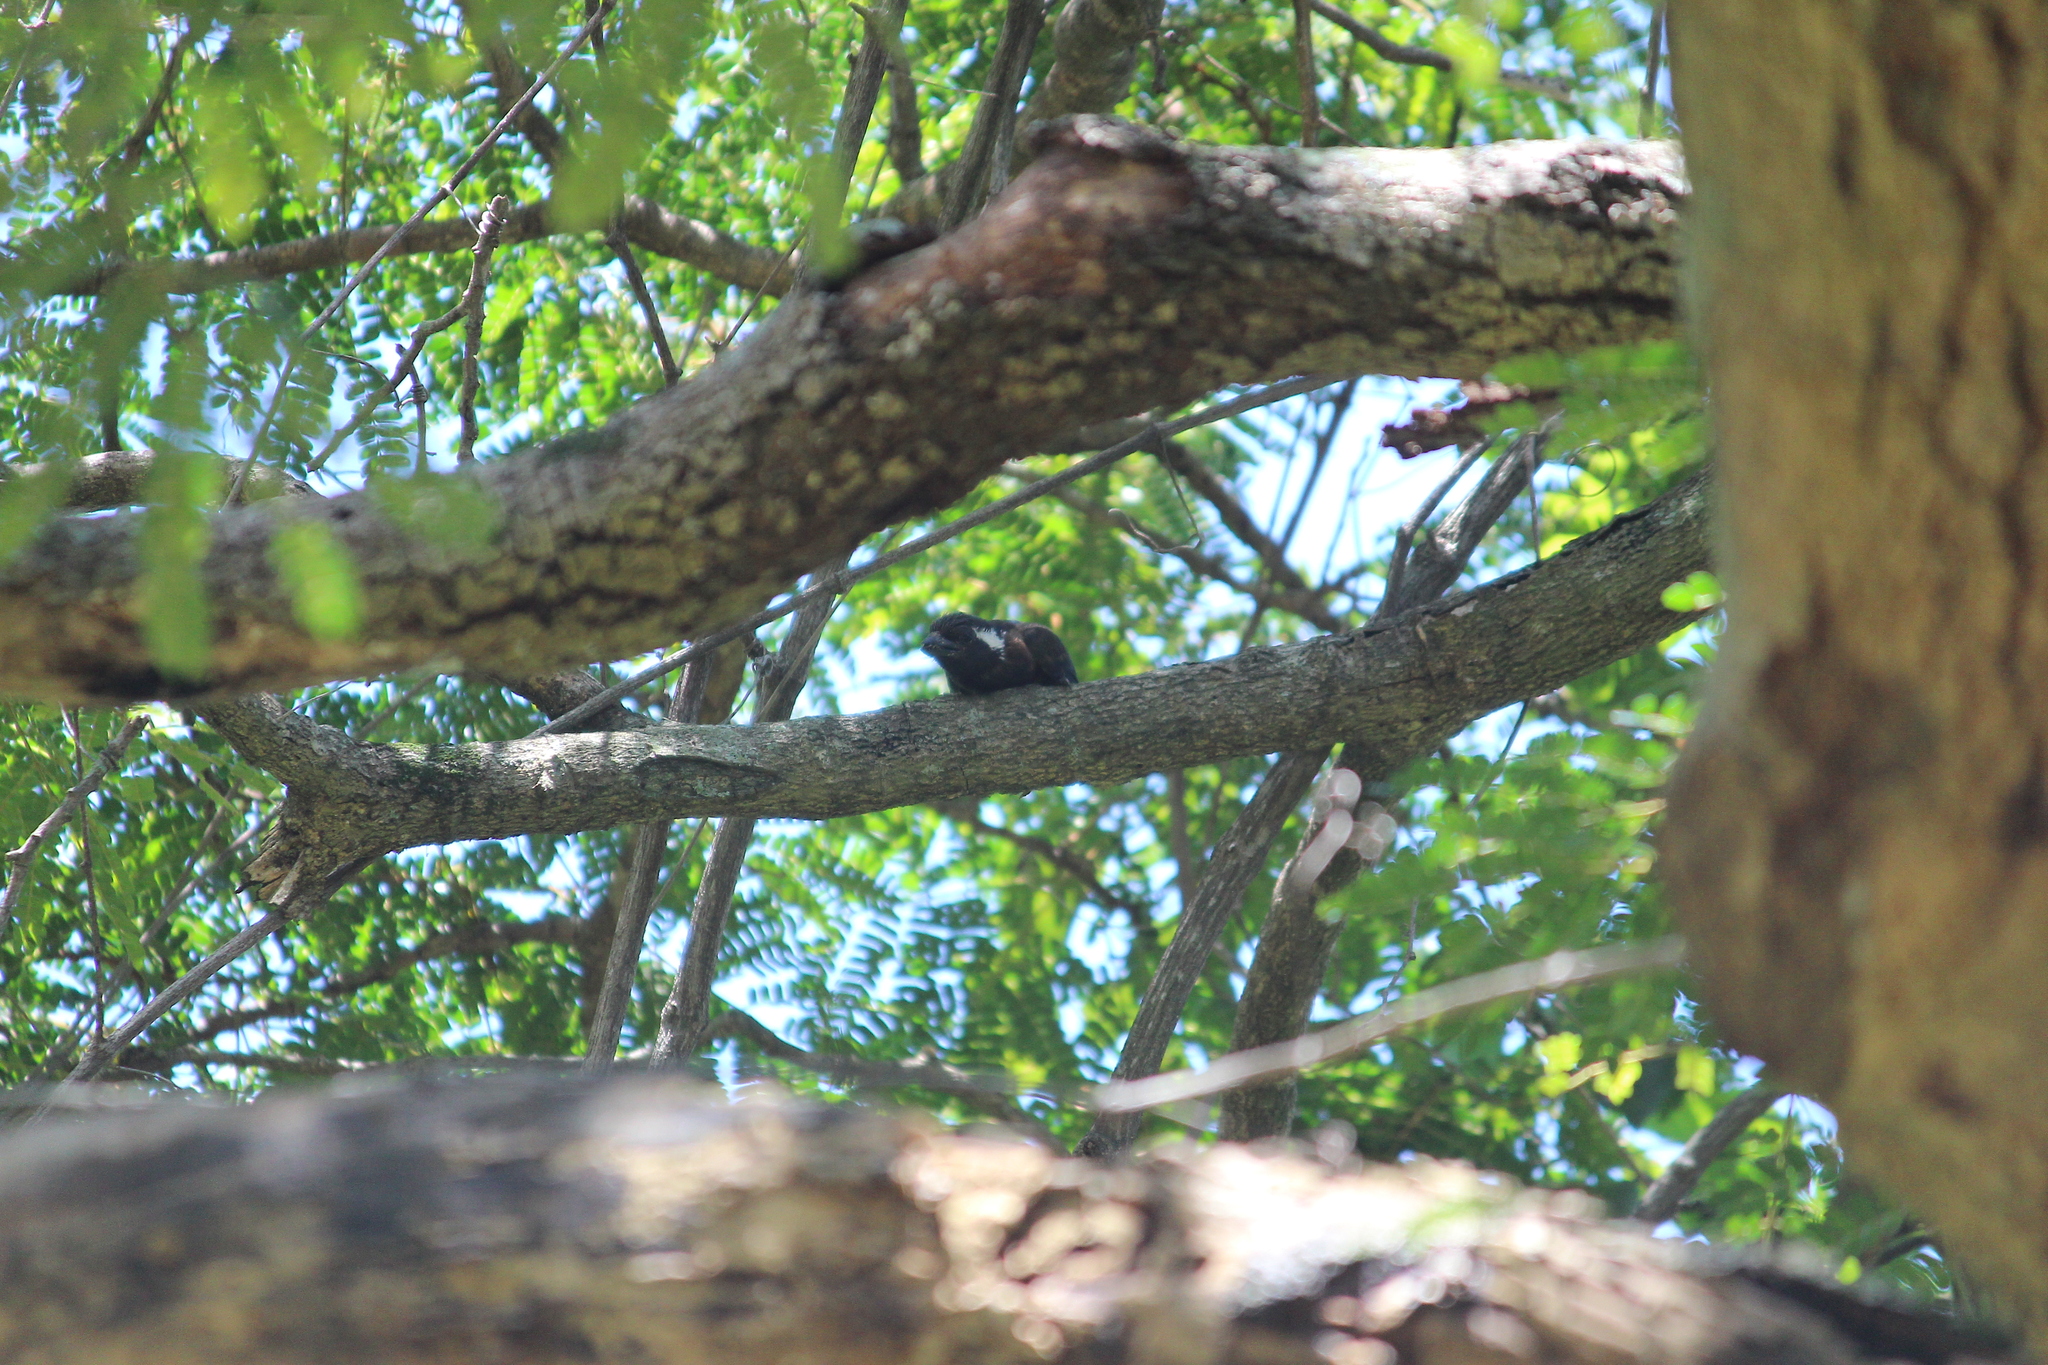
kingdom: Animalia
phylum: Chordata
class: Aves
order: Piciformes
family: Lybiidae
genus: Stactolaema
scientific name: Stactolaema leucotis
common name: White-eared barbet
